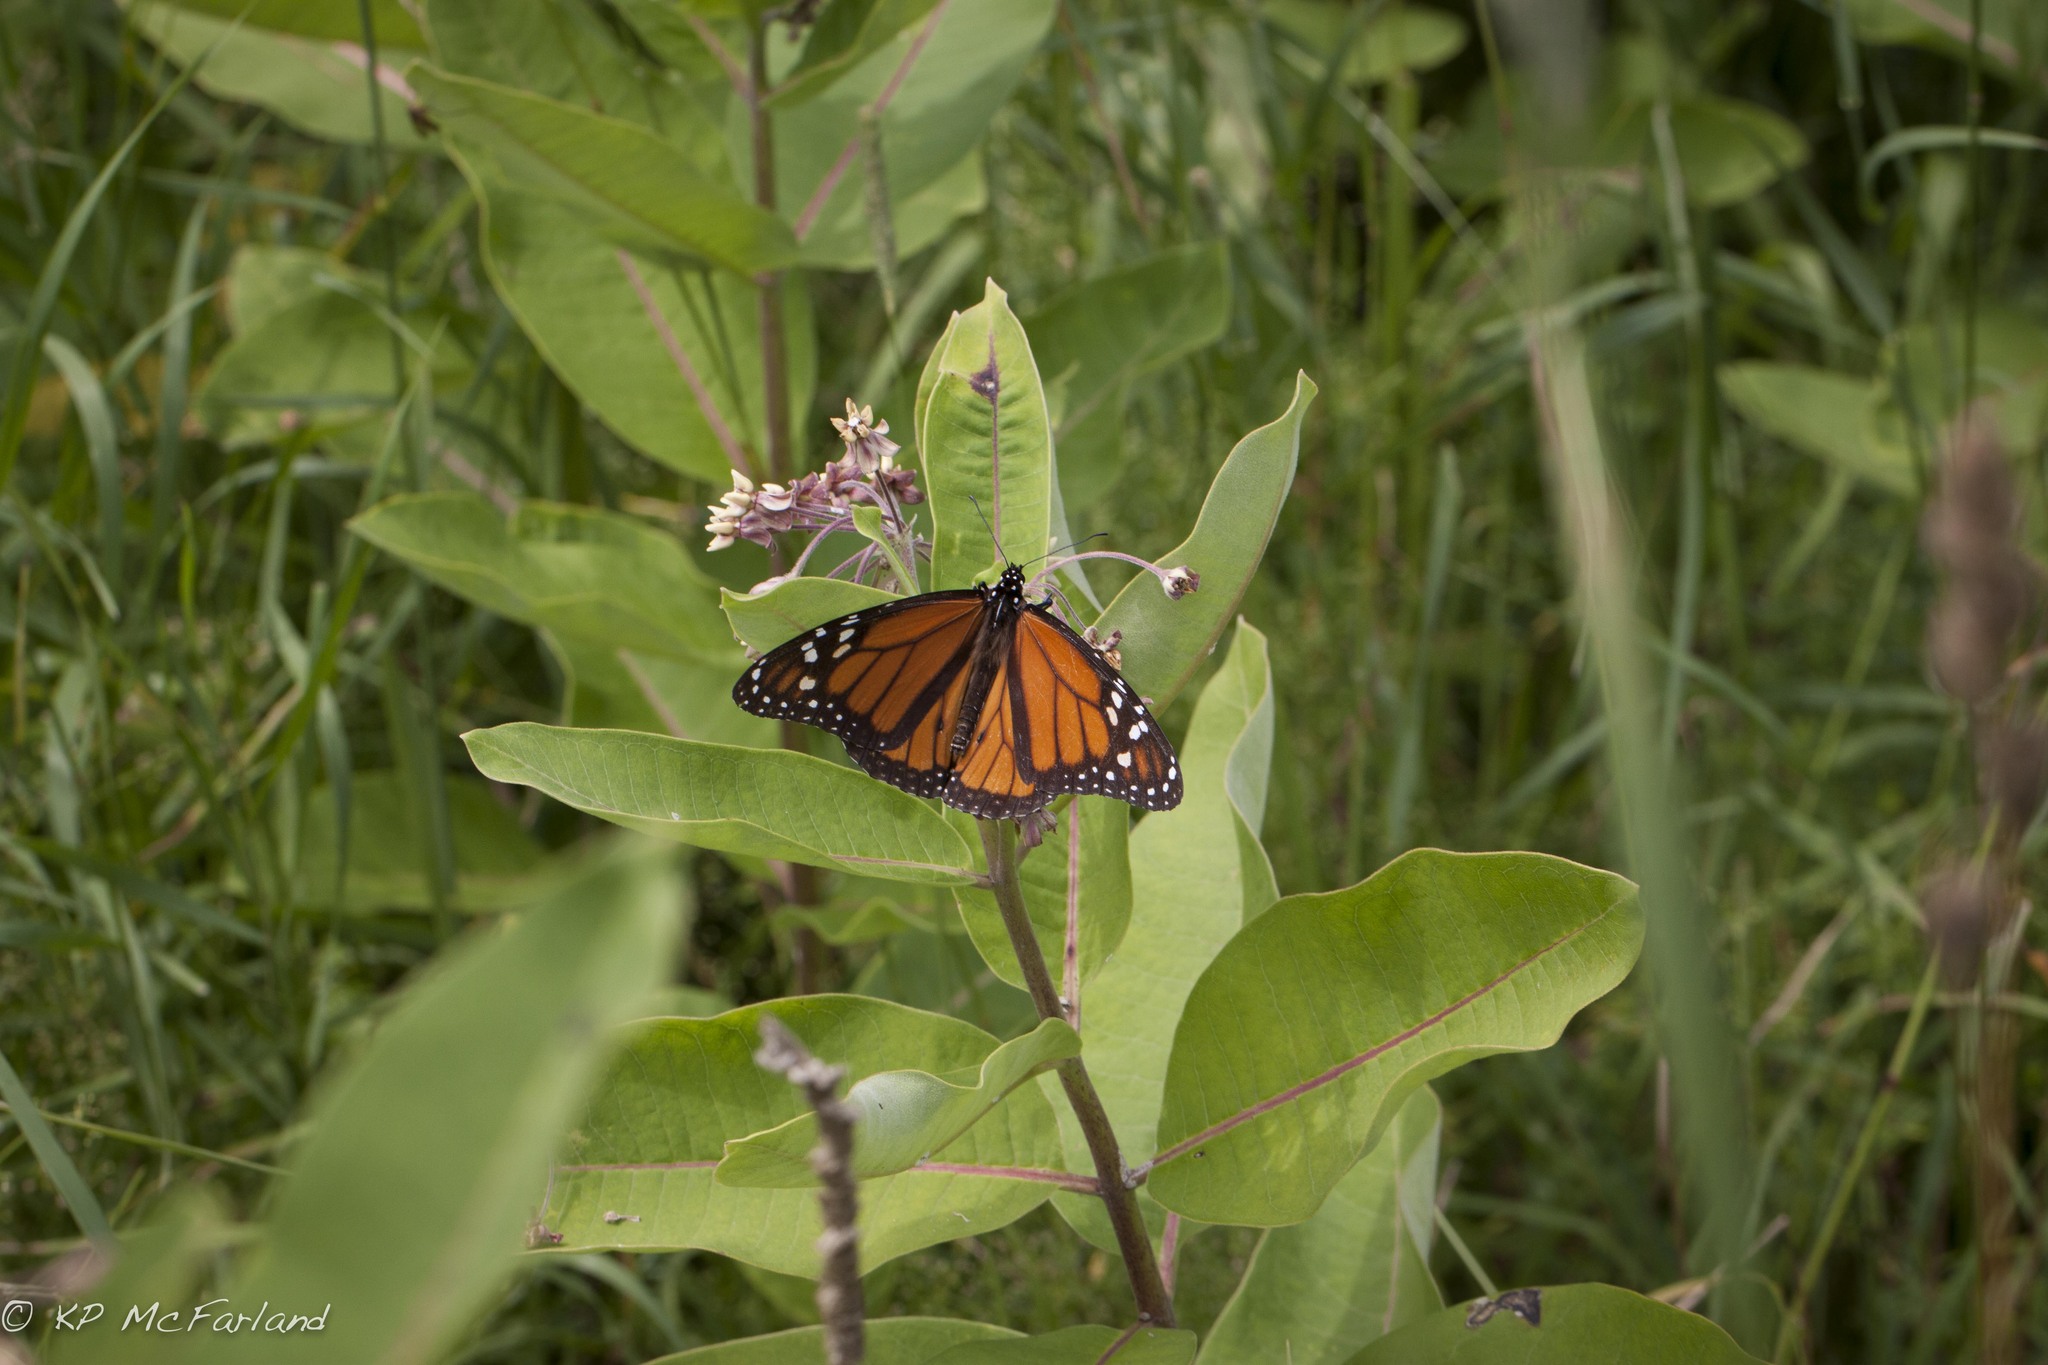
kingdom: Animalia
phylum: Arthropoda
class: Insecta
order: Lepidoptera
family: Nymphalidae
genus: Danaus
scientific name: Danaus plexippus
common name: Monarch
